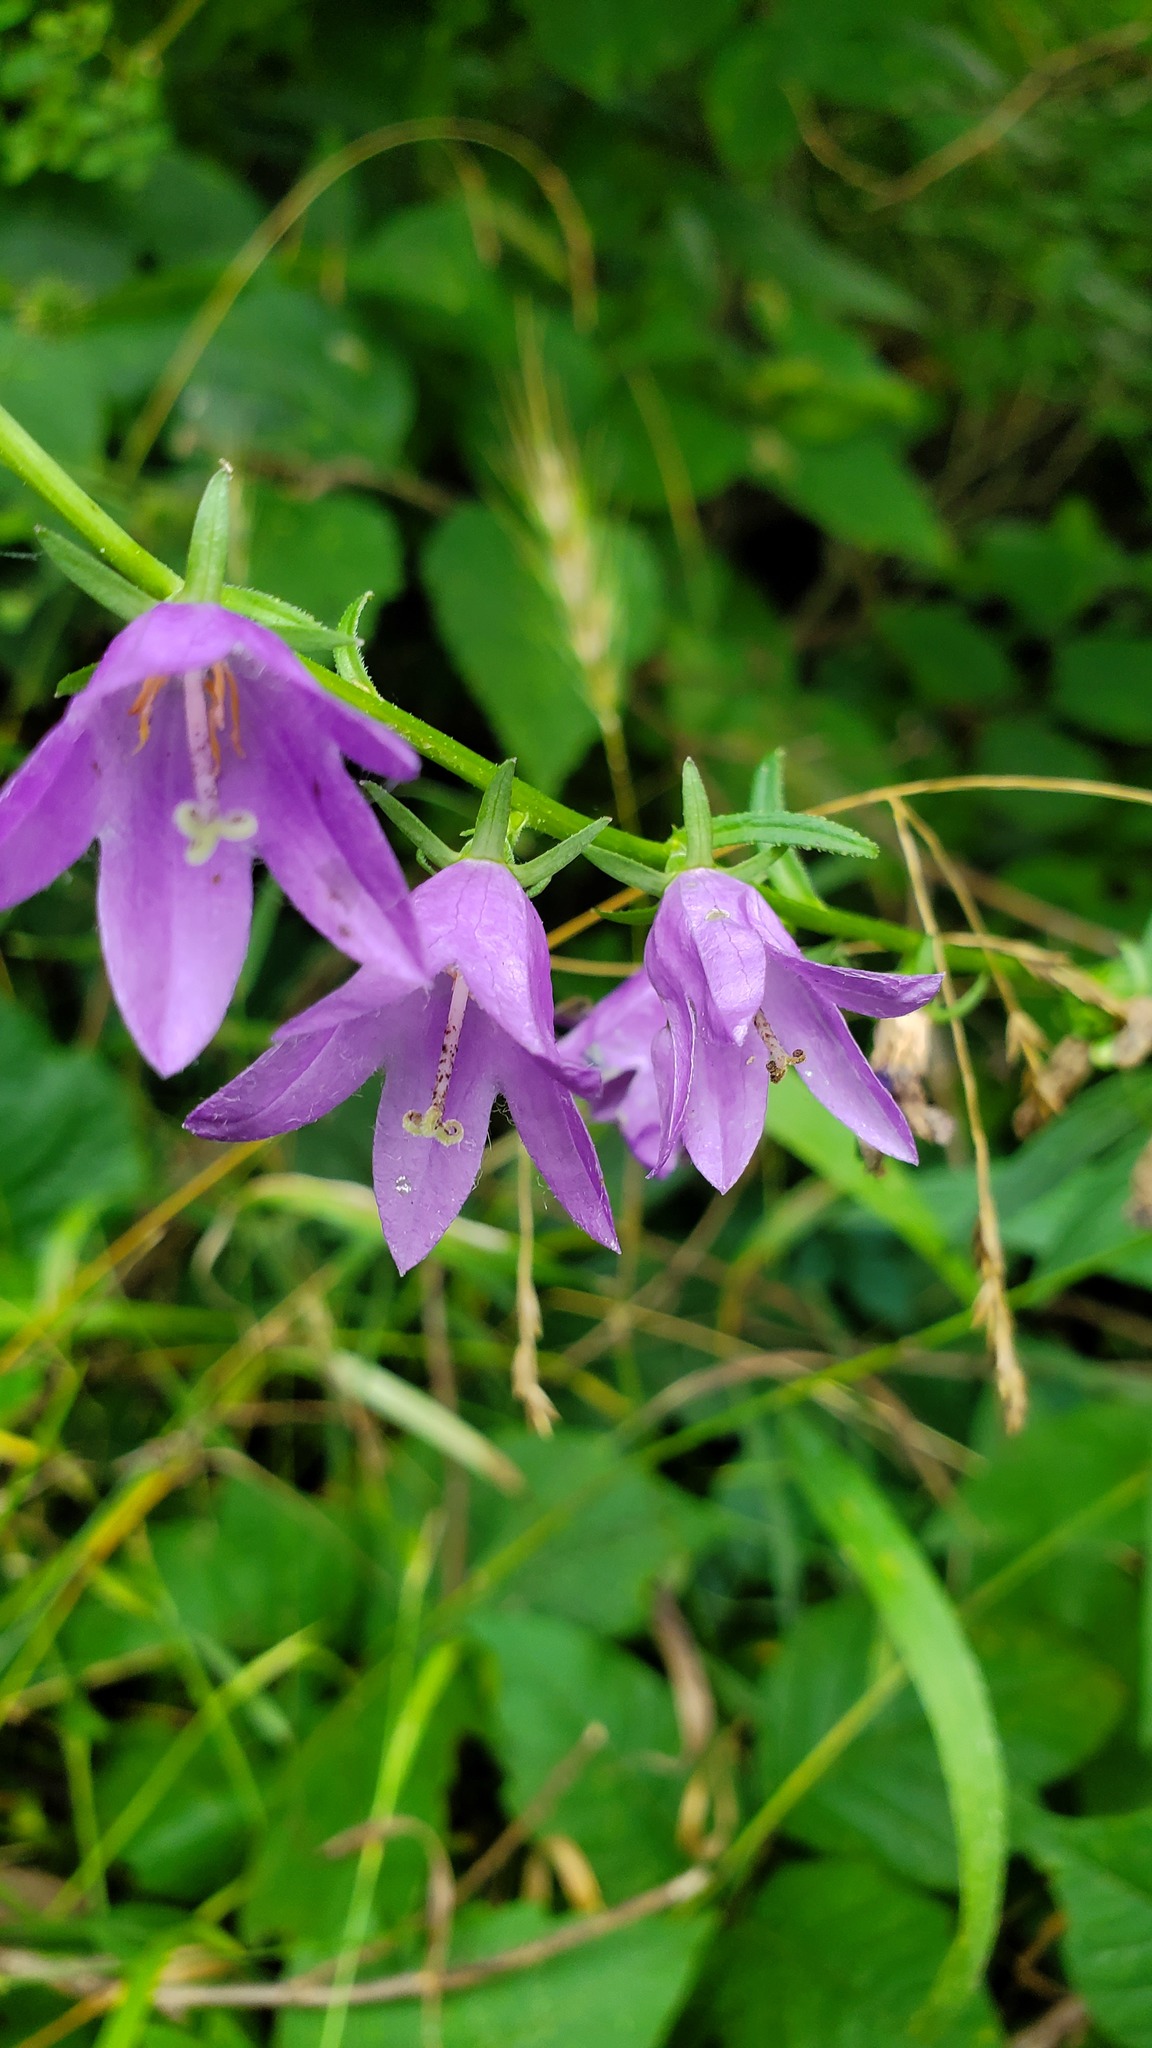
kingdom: Plantae
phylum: Tracheophyta
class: Magnoliopsida
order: Asterales
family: Campanulaceae
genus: Campanula
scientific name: Campanula rapunculoides
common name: Creeping bellflower
